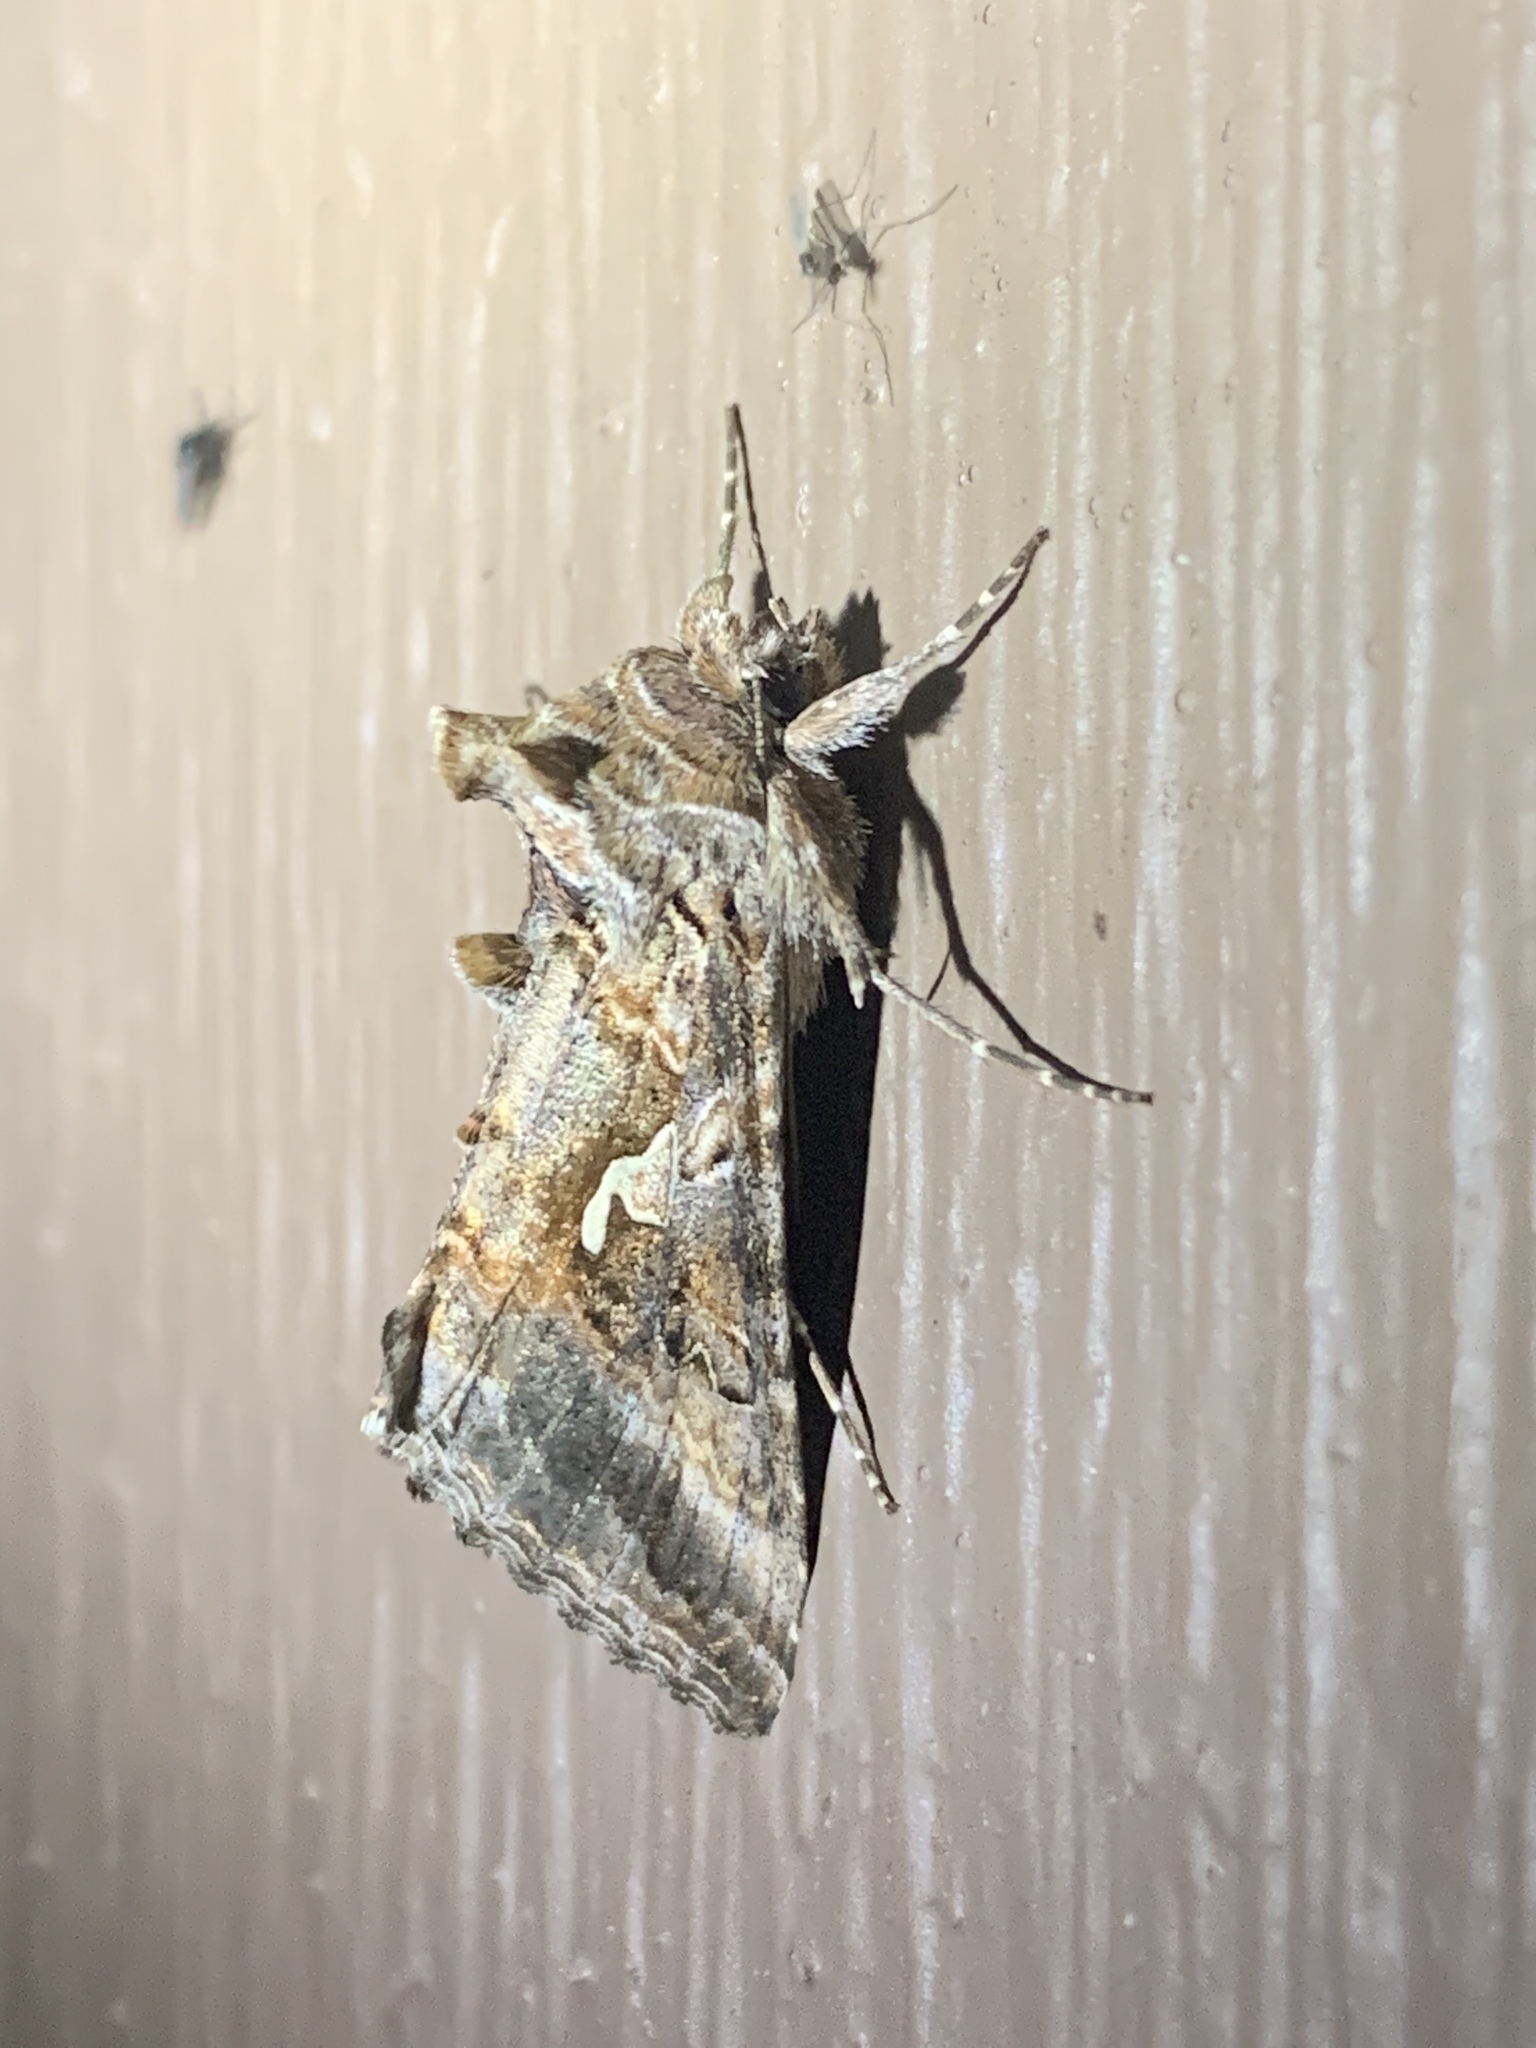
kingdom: Animalia
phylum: Arthropoda
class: Insecta
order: Lepidoptera
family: Noctuidae
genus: Autographa
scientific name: Autographa californica
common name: Alfalfa looper
